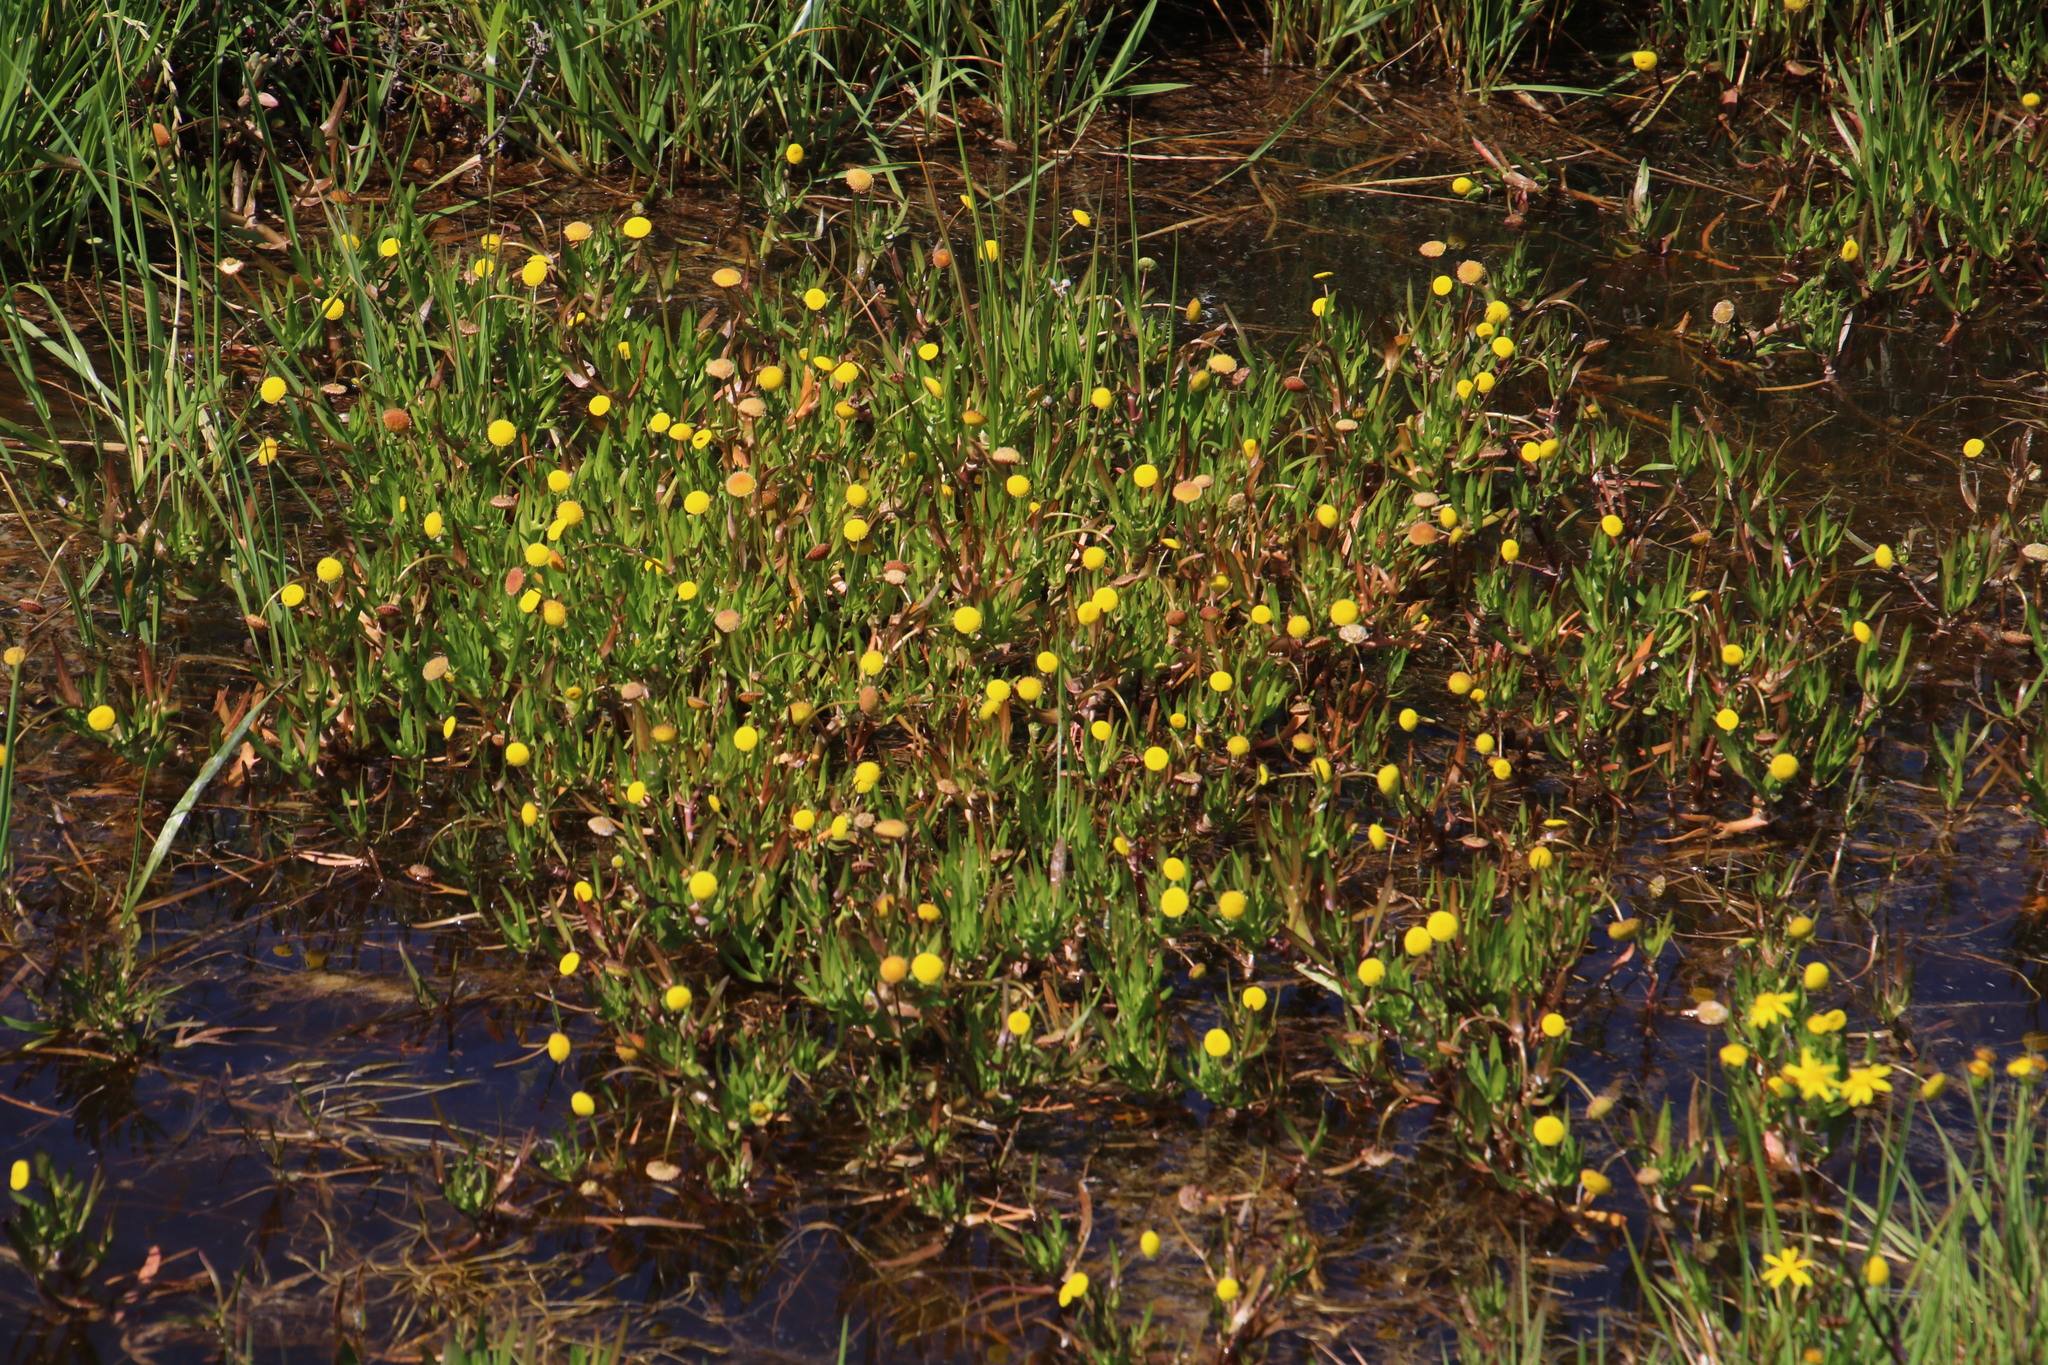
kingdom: Plantae
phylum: Tracheophyta
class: Magnoliopsida
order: Asterales
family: Asteraceae
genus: Cotula
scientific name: Cotula coronopifolia
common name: Buttonweed
